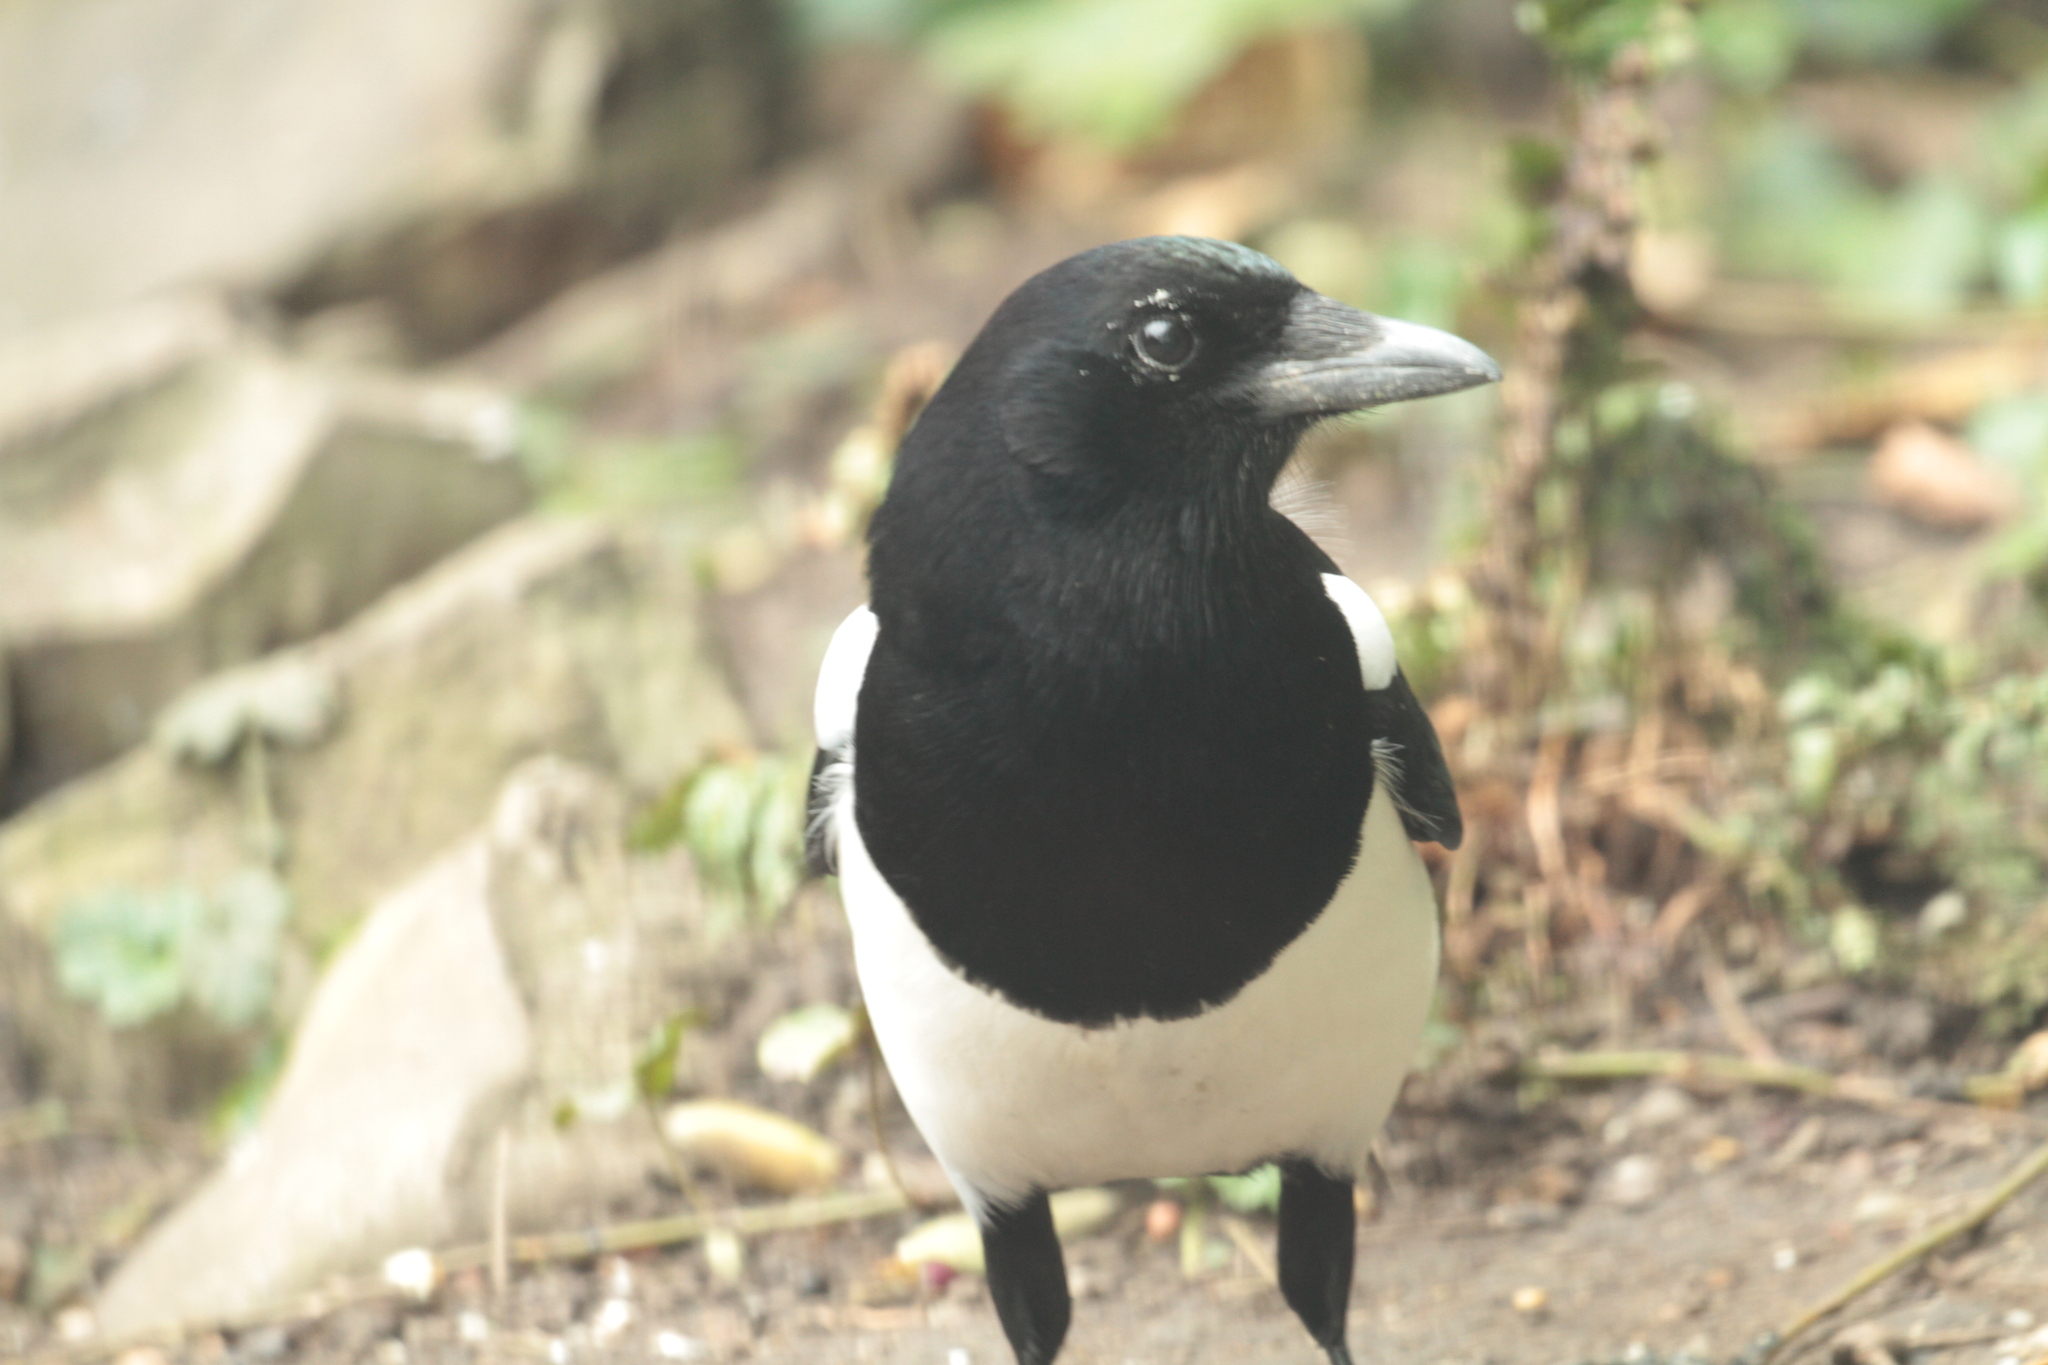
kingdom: Animalia
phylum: Chordata
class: Aves
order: Passeriformes
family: Corvidae
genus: Pica
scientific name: Pica pica
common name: Eurasian magpie
